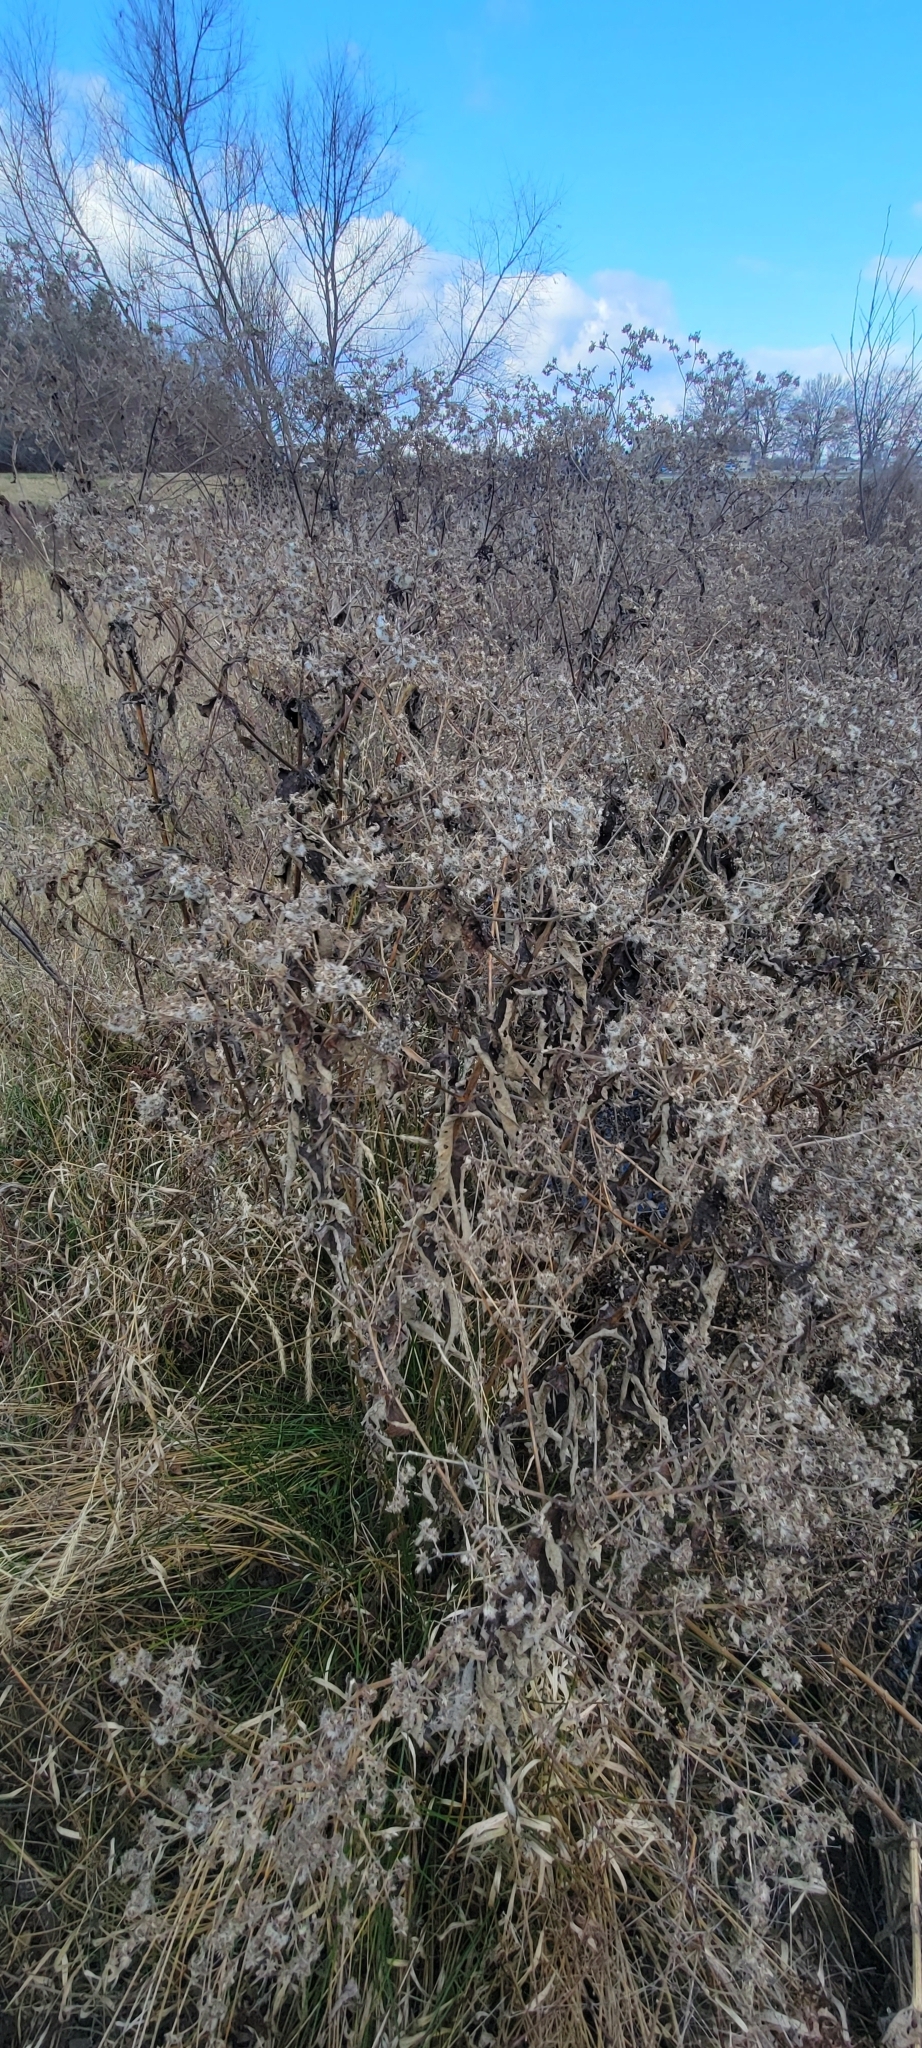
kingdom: Plantae
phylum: Tracheophyta
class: Magnoliopsida
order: Asterales
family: Asteraceae
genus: Eupatorium
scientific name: Eupatorium perfoliatum
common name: Boneset
